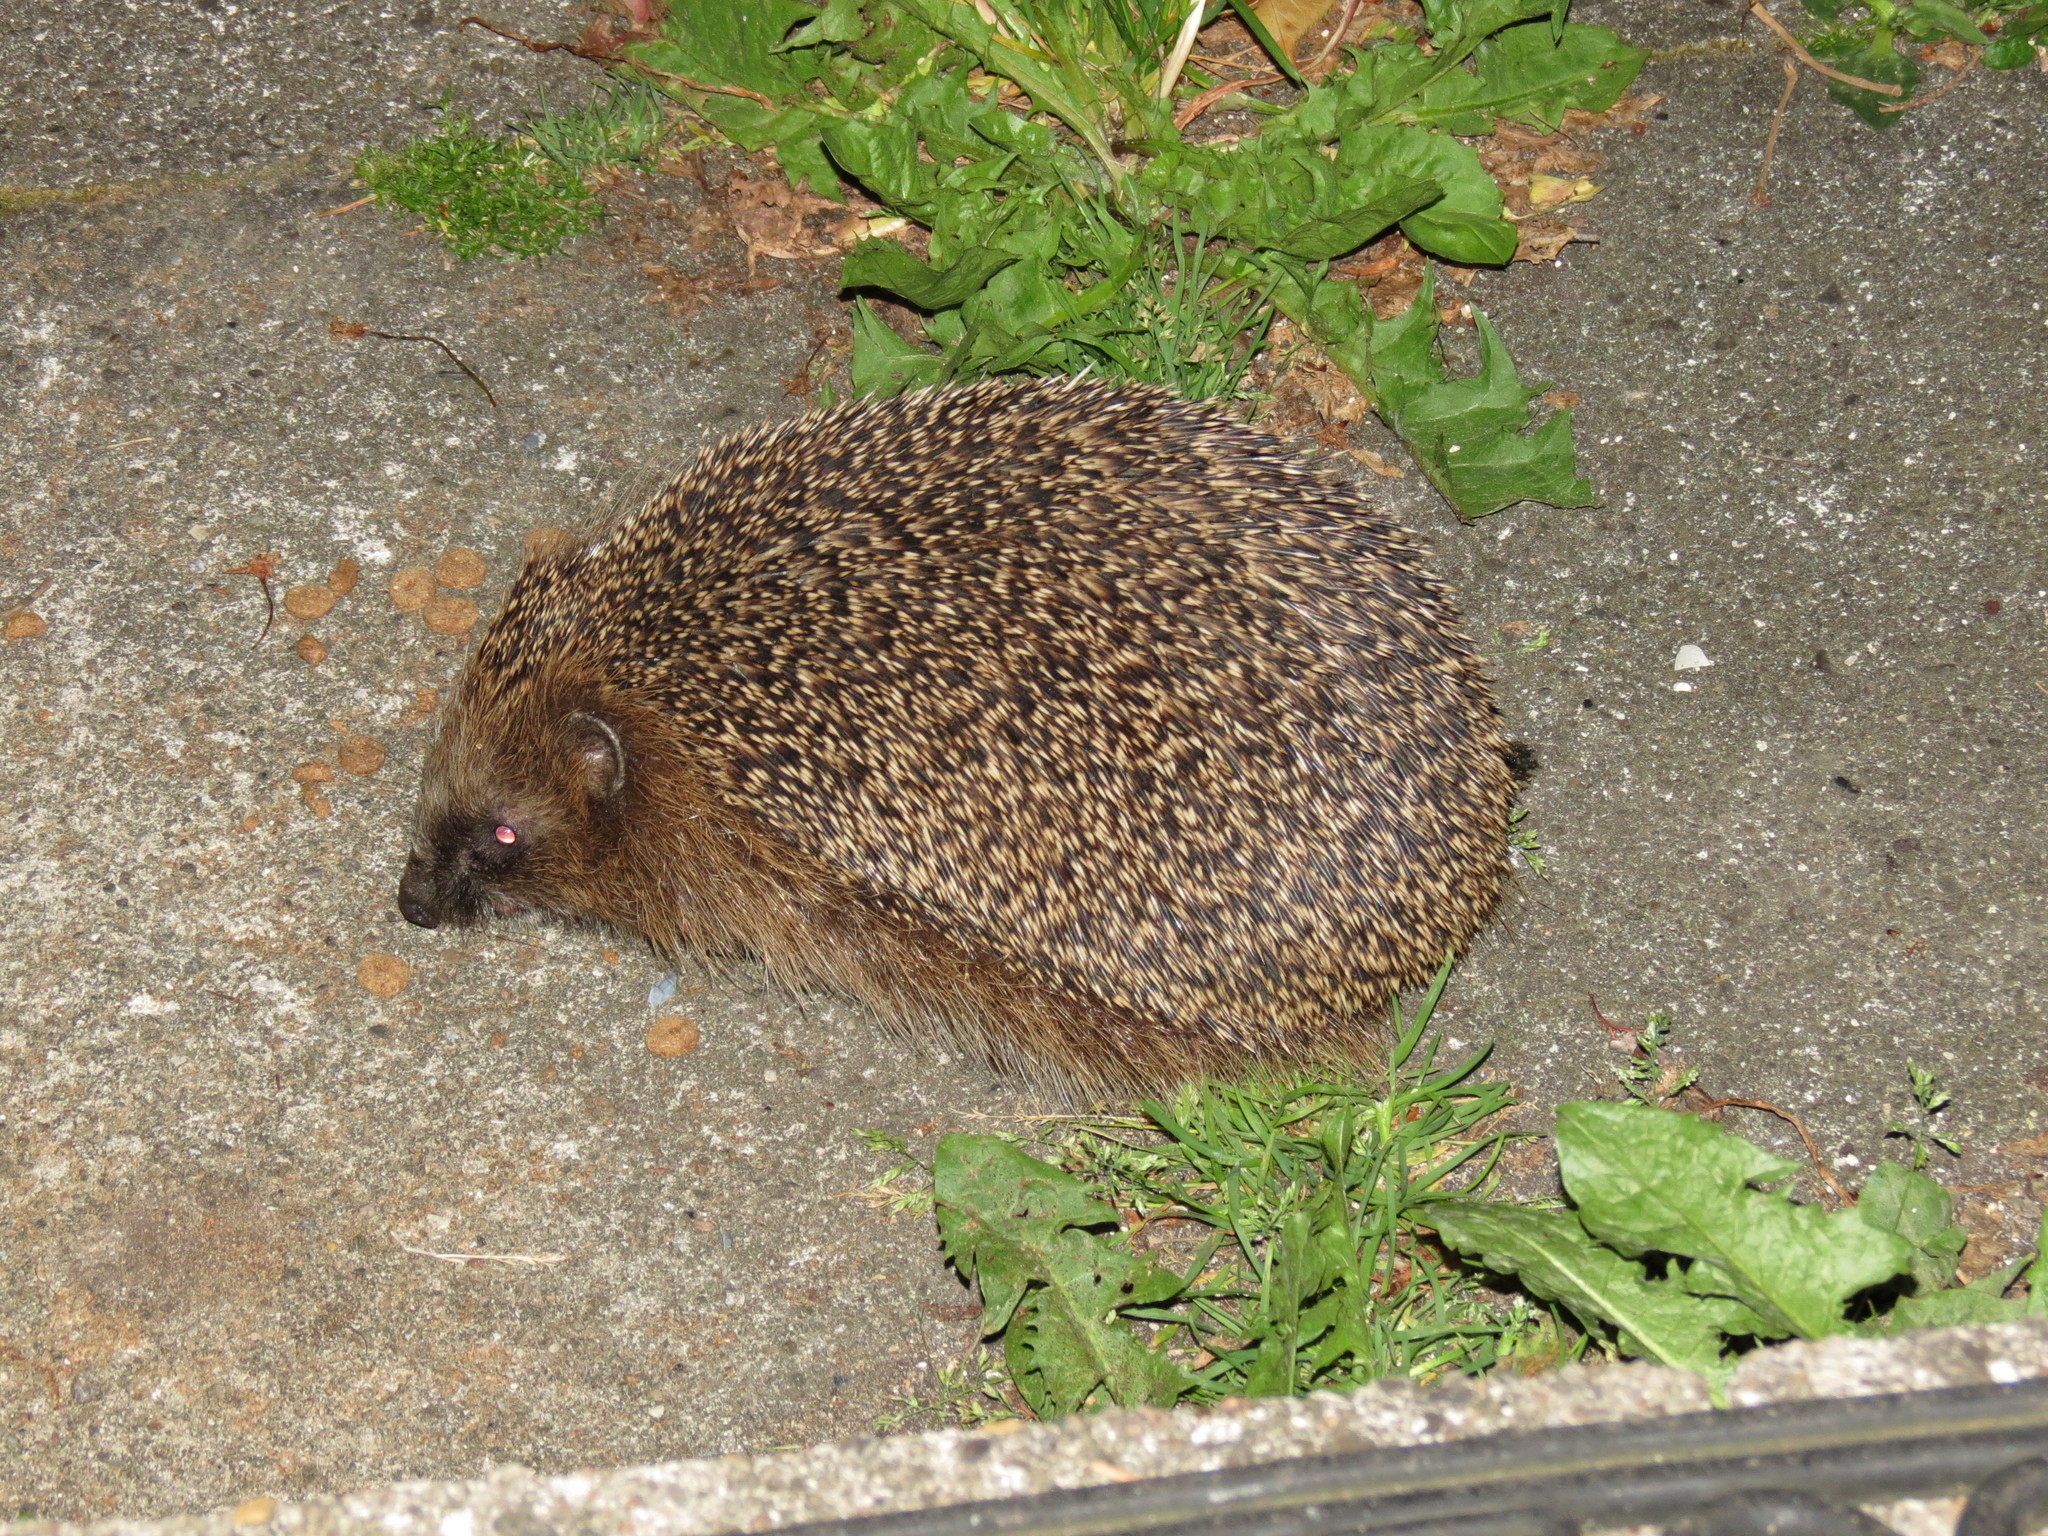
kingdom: Animalia
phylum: Chordata
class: Mammalia
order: Erinaceomorpha
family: Erinaceidae
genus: Erinaceus
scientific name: Erinaceus europaeus
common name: West european hedgehog
